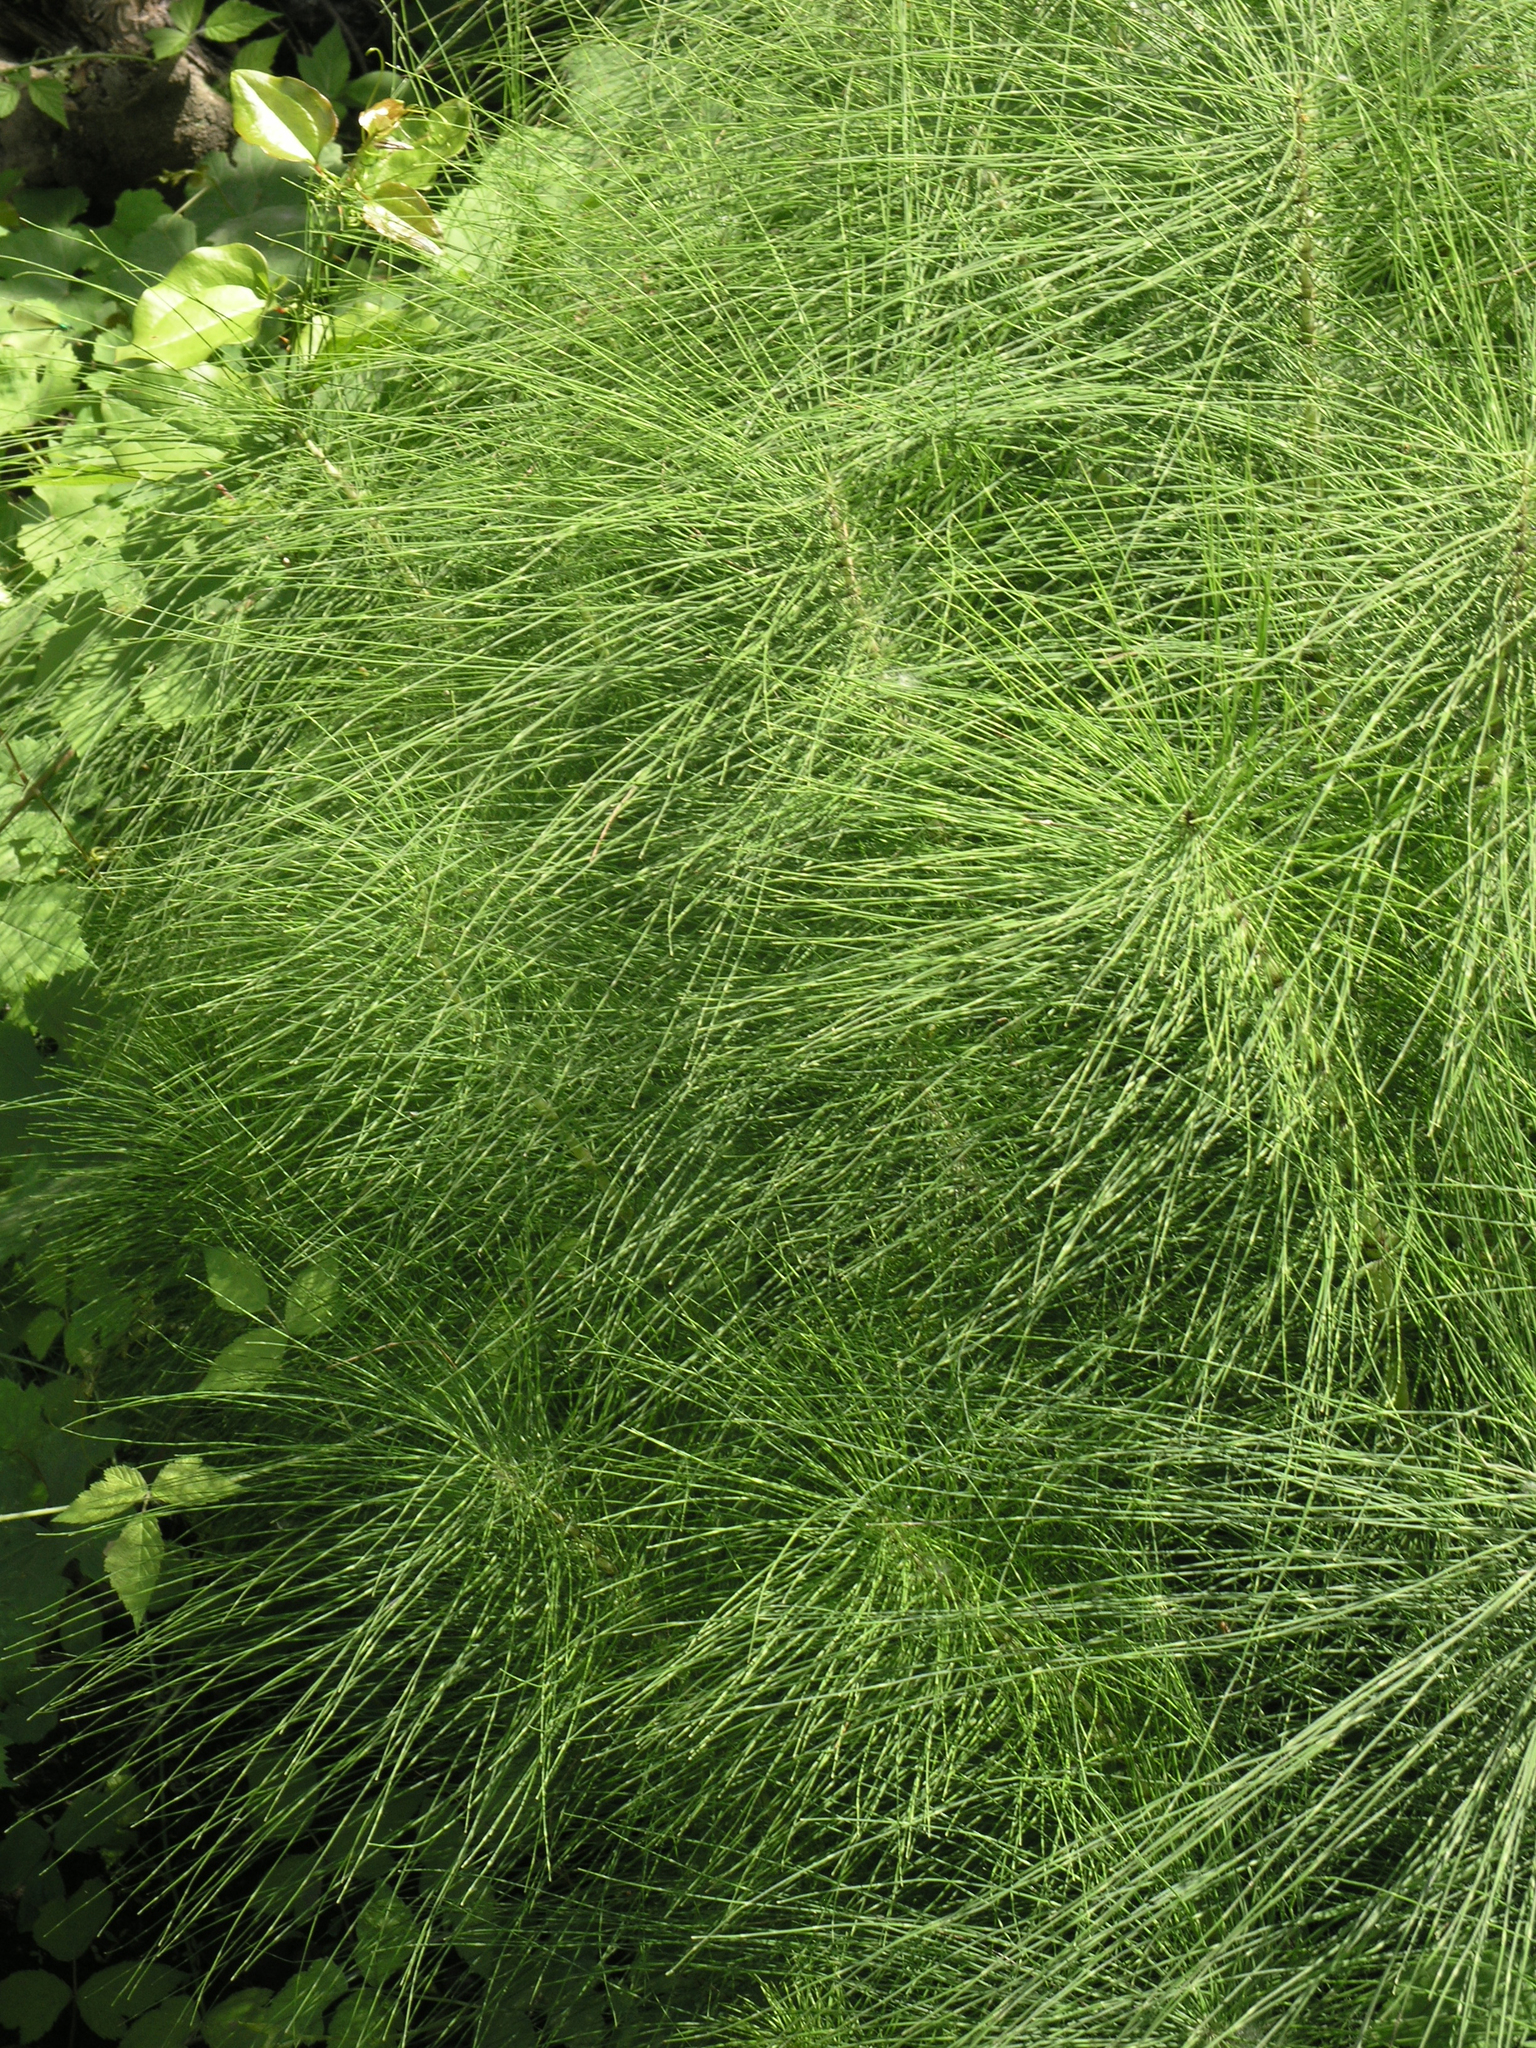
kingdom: Plantae
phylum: Tracheophyta
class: Polypodiopsida
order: Equisetales
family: Equisetaceae
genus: Equisetum
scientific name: Equisetum telmateia
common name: Great horsetail
